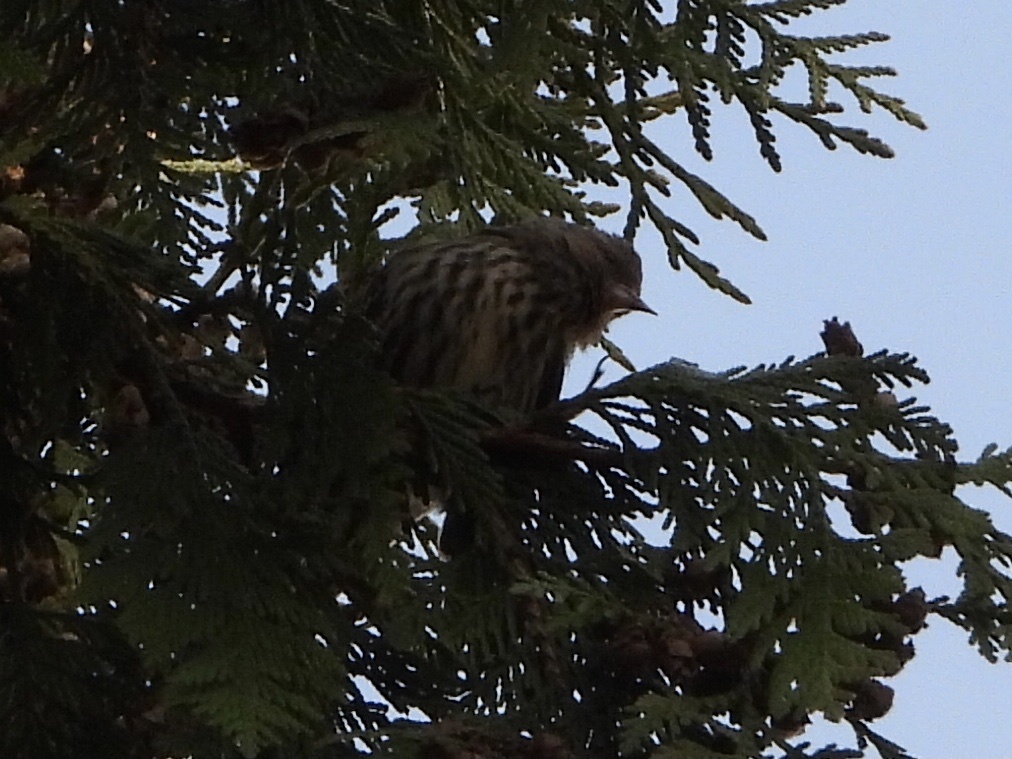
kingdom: Animalia
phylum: Chordata
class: Aves
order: Passeriformes
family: Fringillidae
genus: Spinus
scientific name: Spinus pinus
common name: Pine siskin
